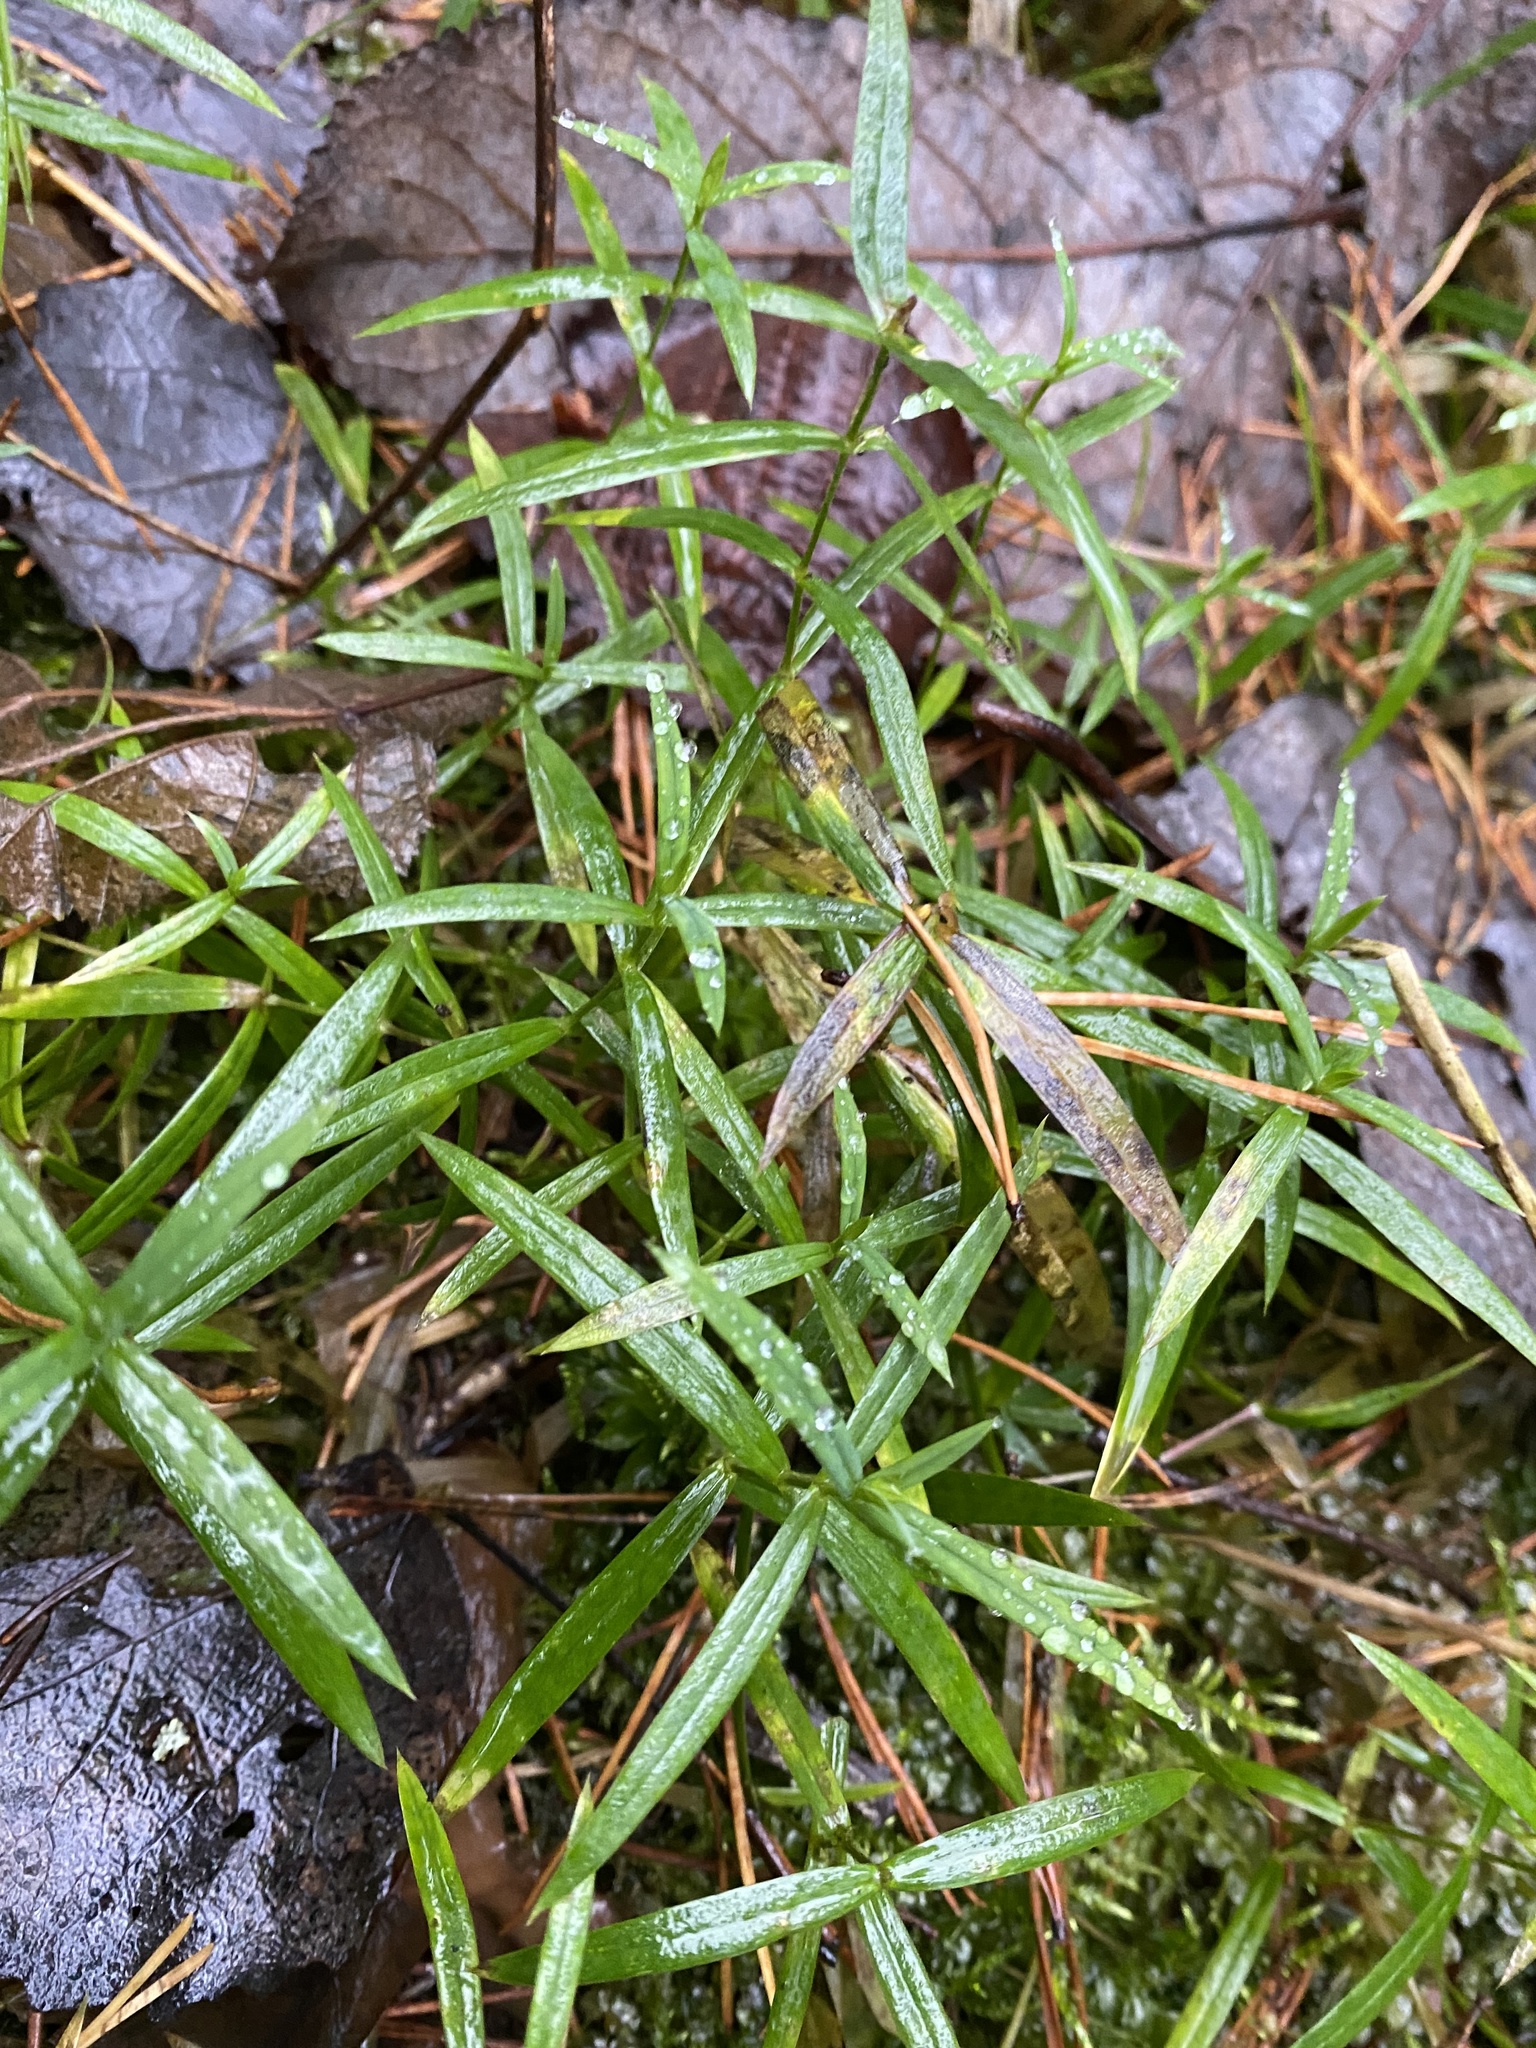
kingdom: Plantae
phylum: Tracheophyta
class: Magnoliopsida
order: Caryophyllales
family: Caryophyllaceae
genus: Rabelera
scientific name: Rabelera holostea
